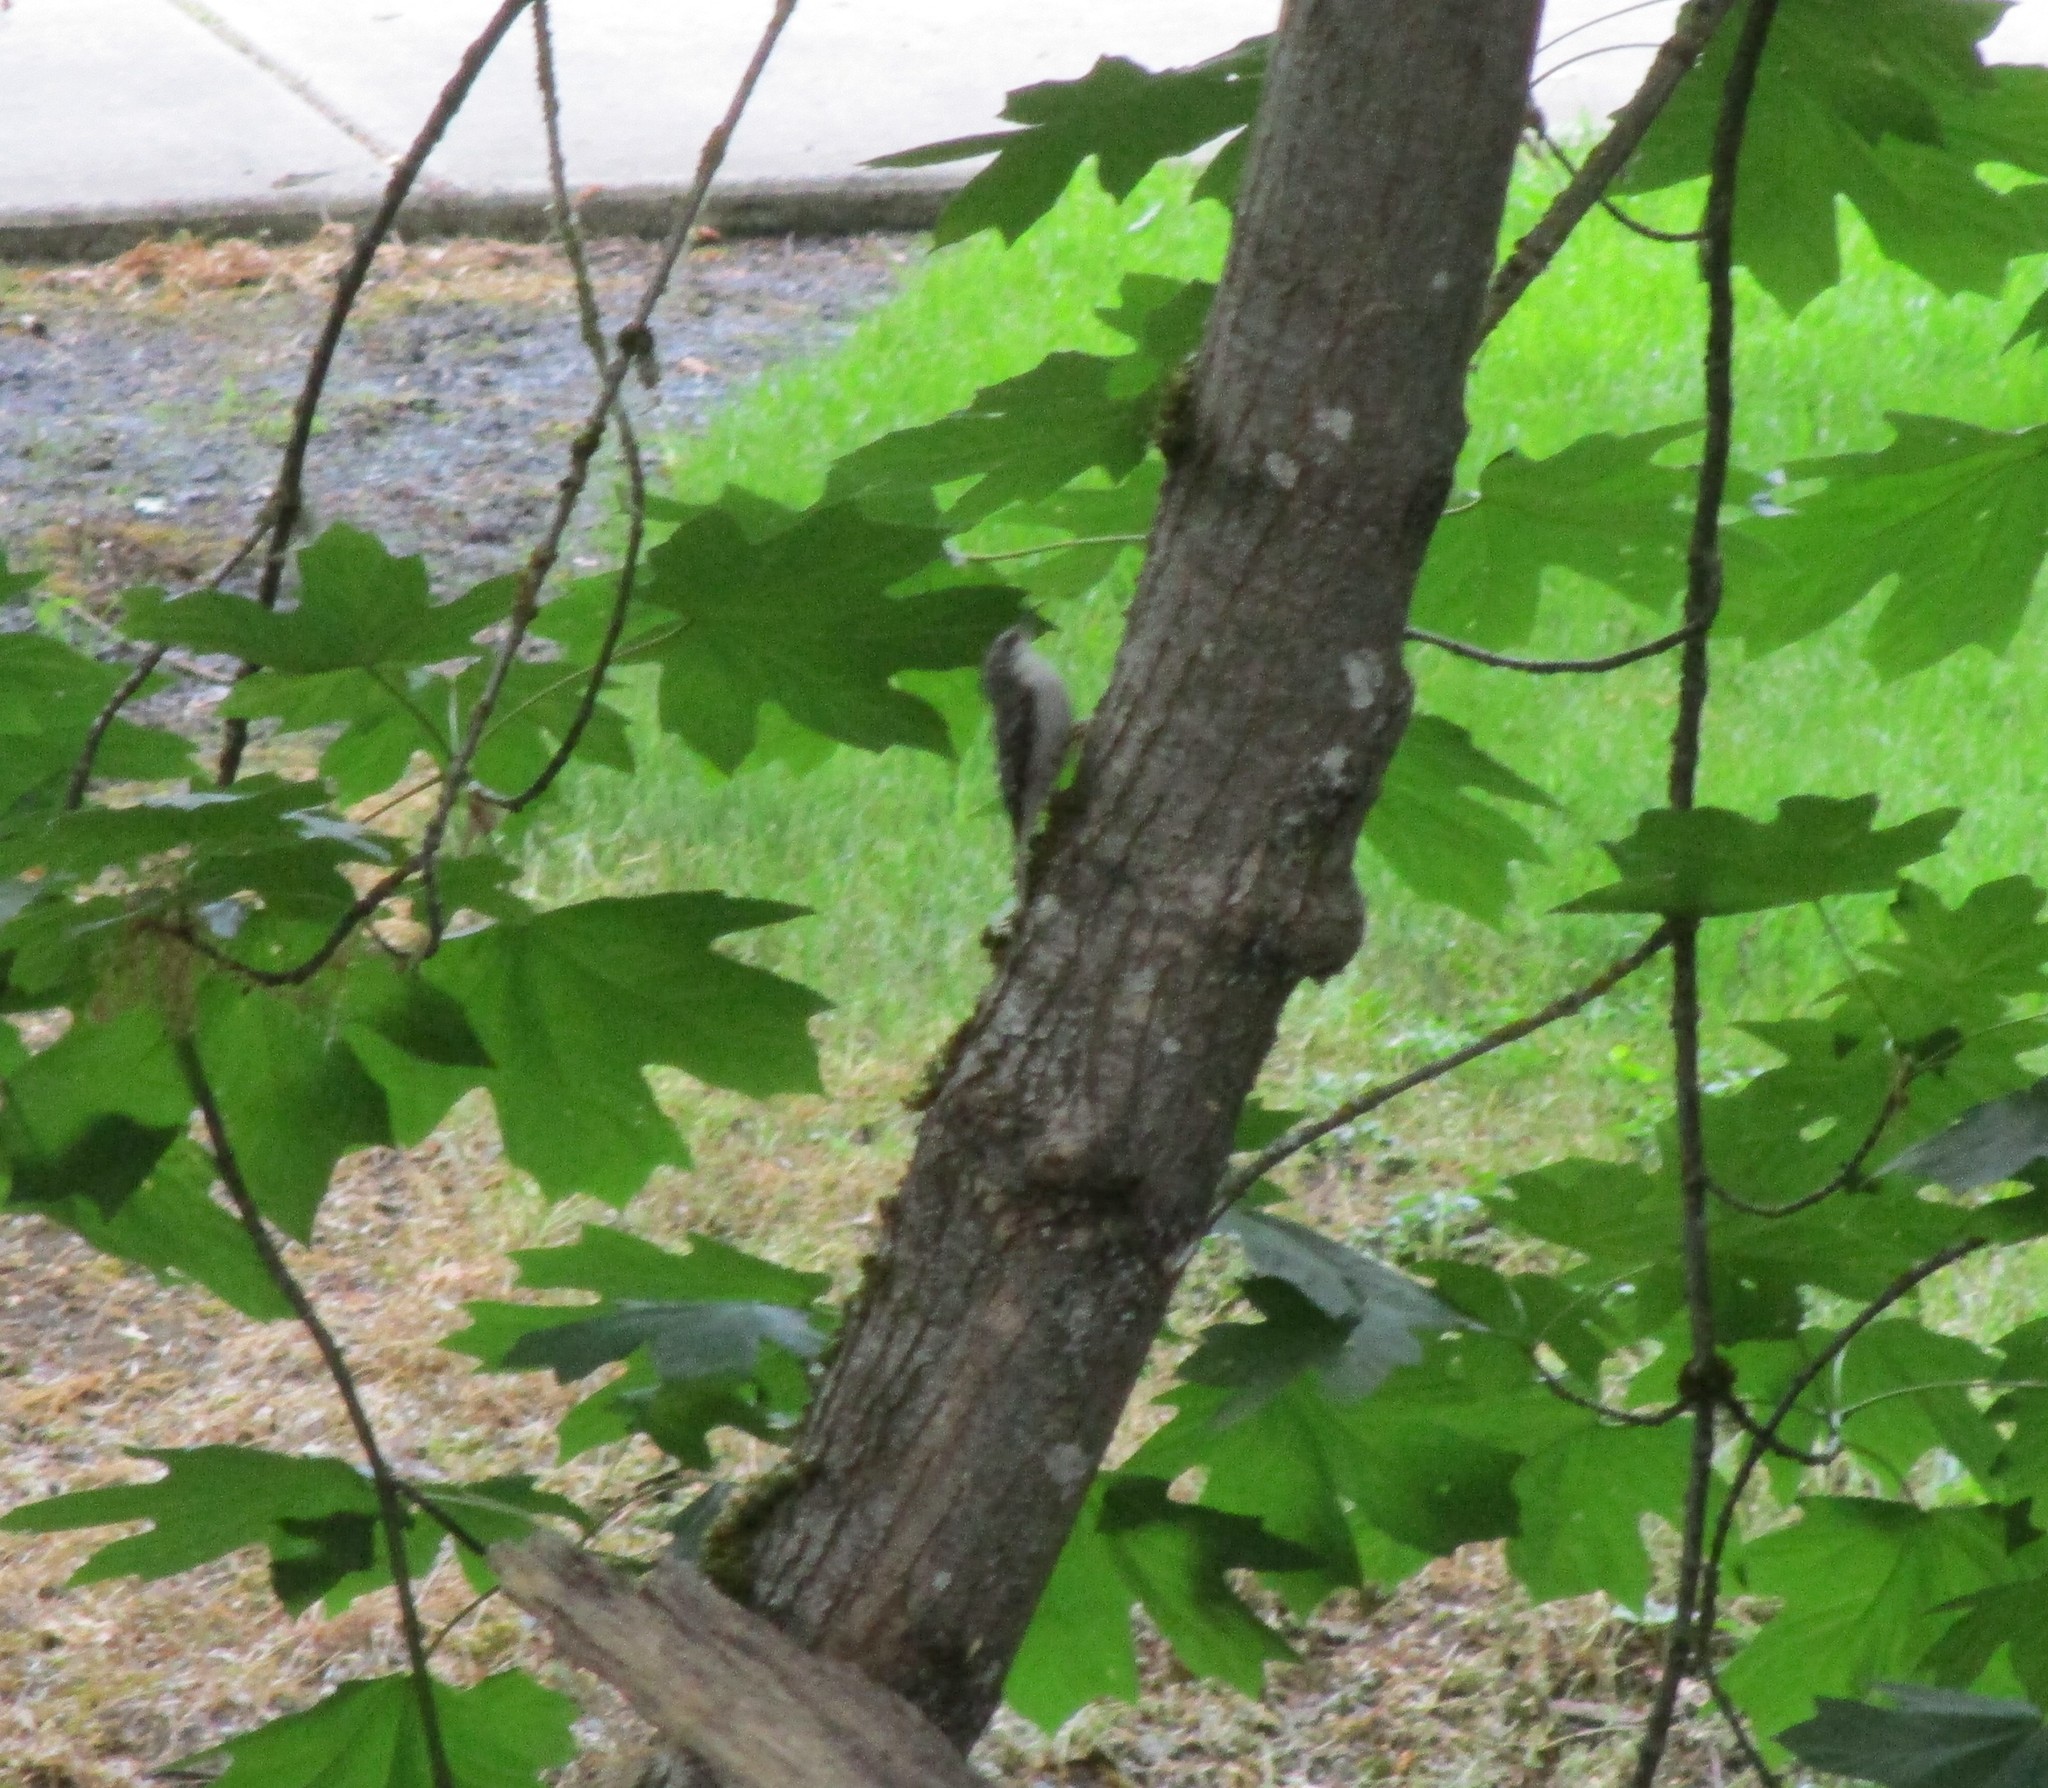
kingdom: Animalia
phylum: Chordata
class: Aves
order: Passeriformes
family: Certhiidae
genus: Certhia
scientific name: Certhia americana
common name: Brown creeper
